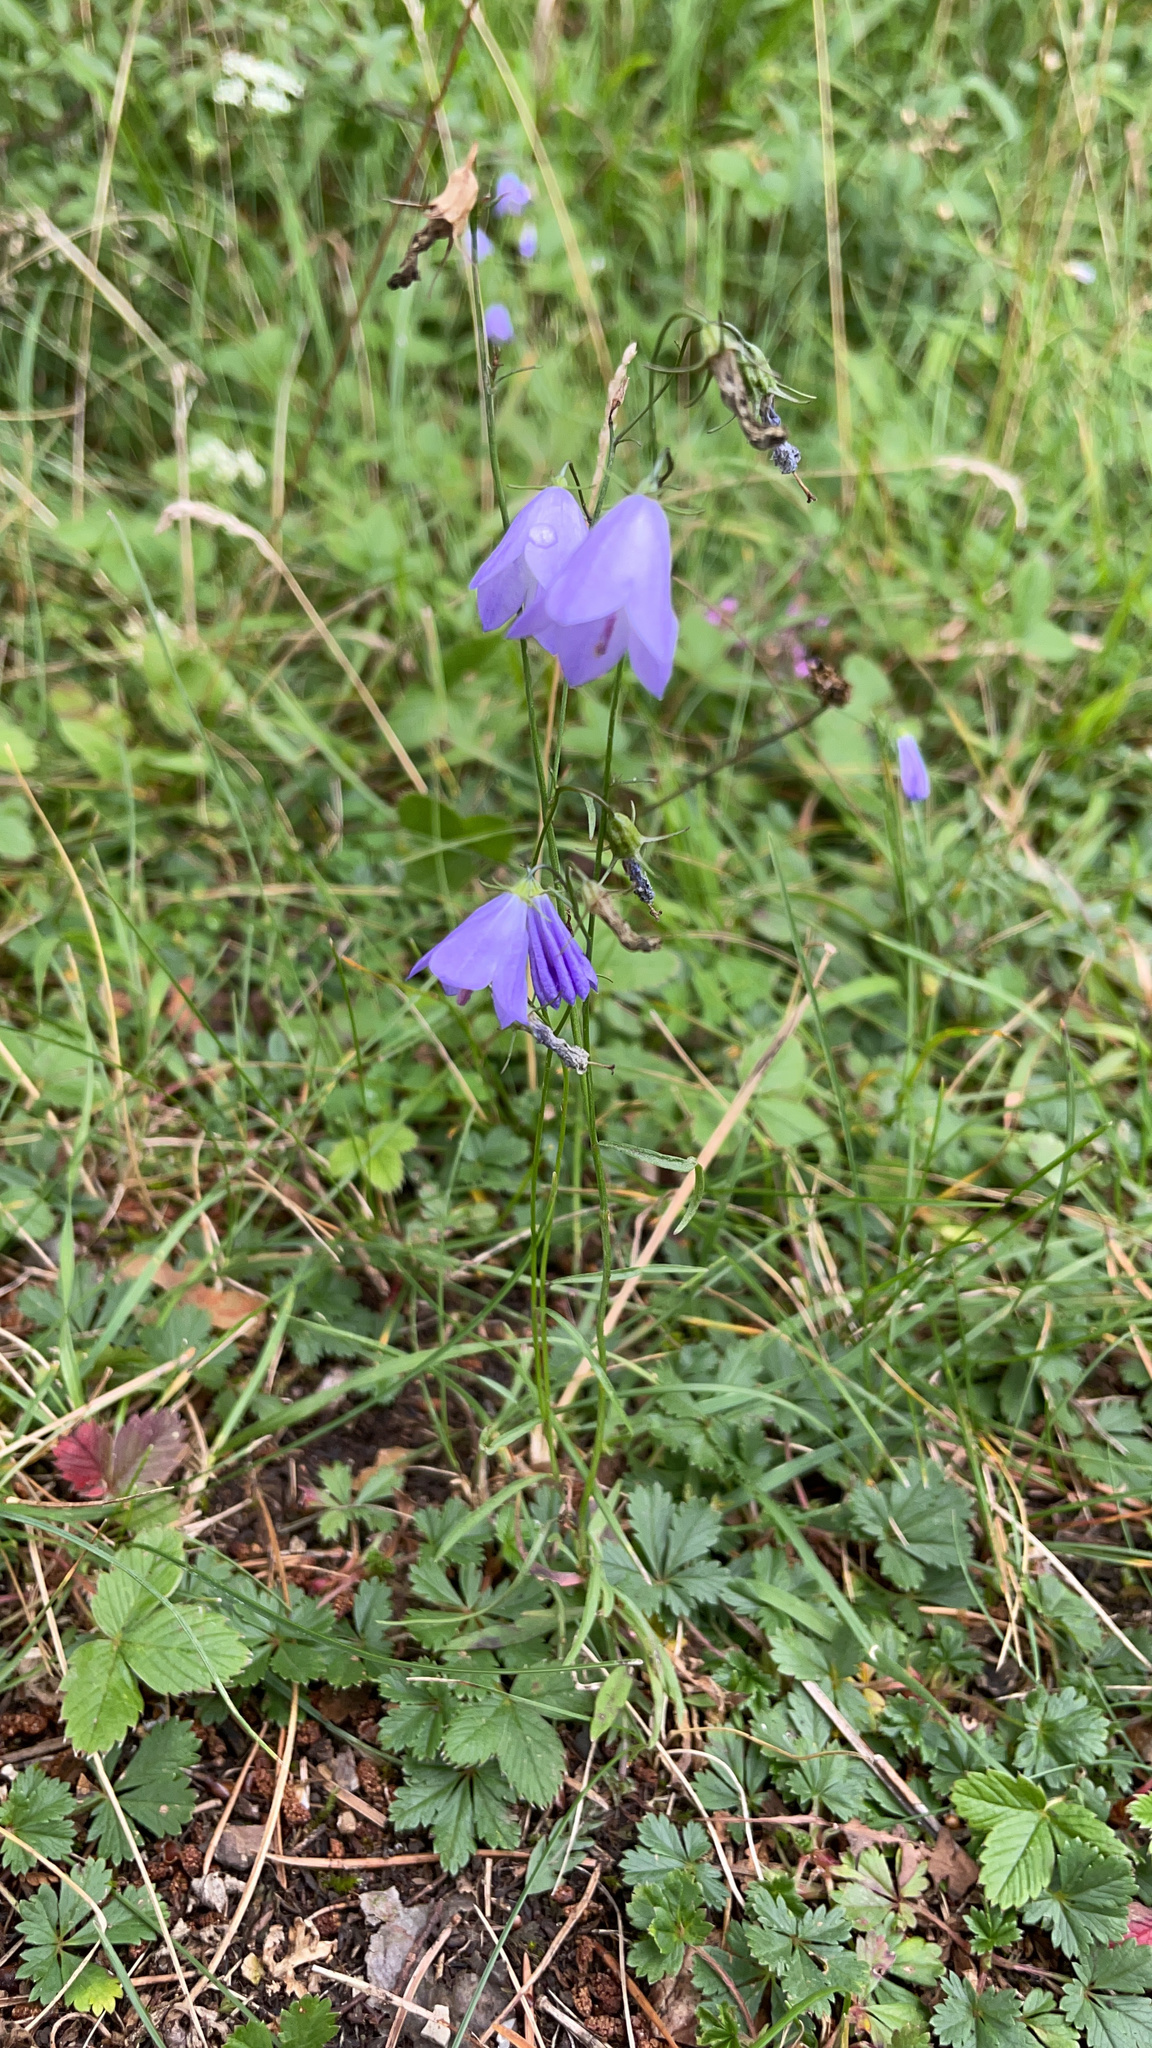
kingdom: Plantae
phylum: Tracheophyta
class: Magnoliopsida
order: Asterales
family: Campanulaceae
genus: Campanula
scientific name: Campanula rotundifolia
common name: Harebell
